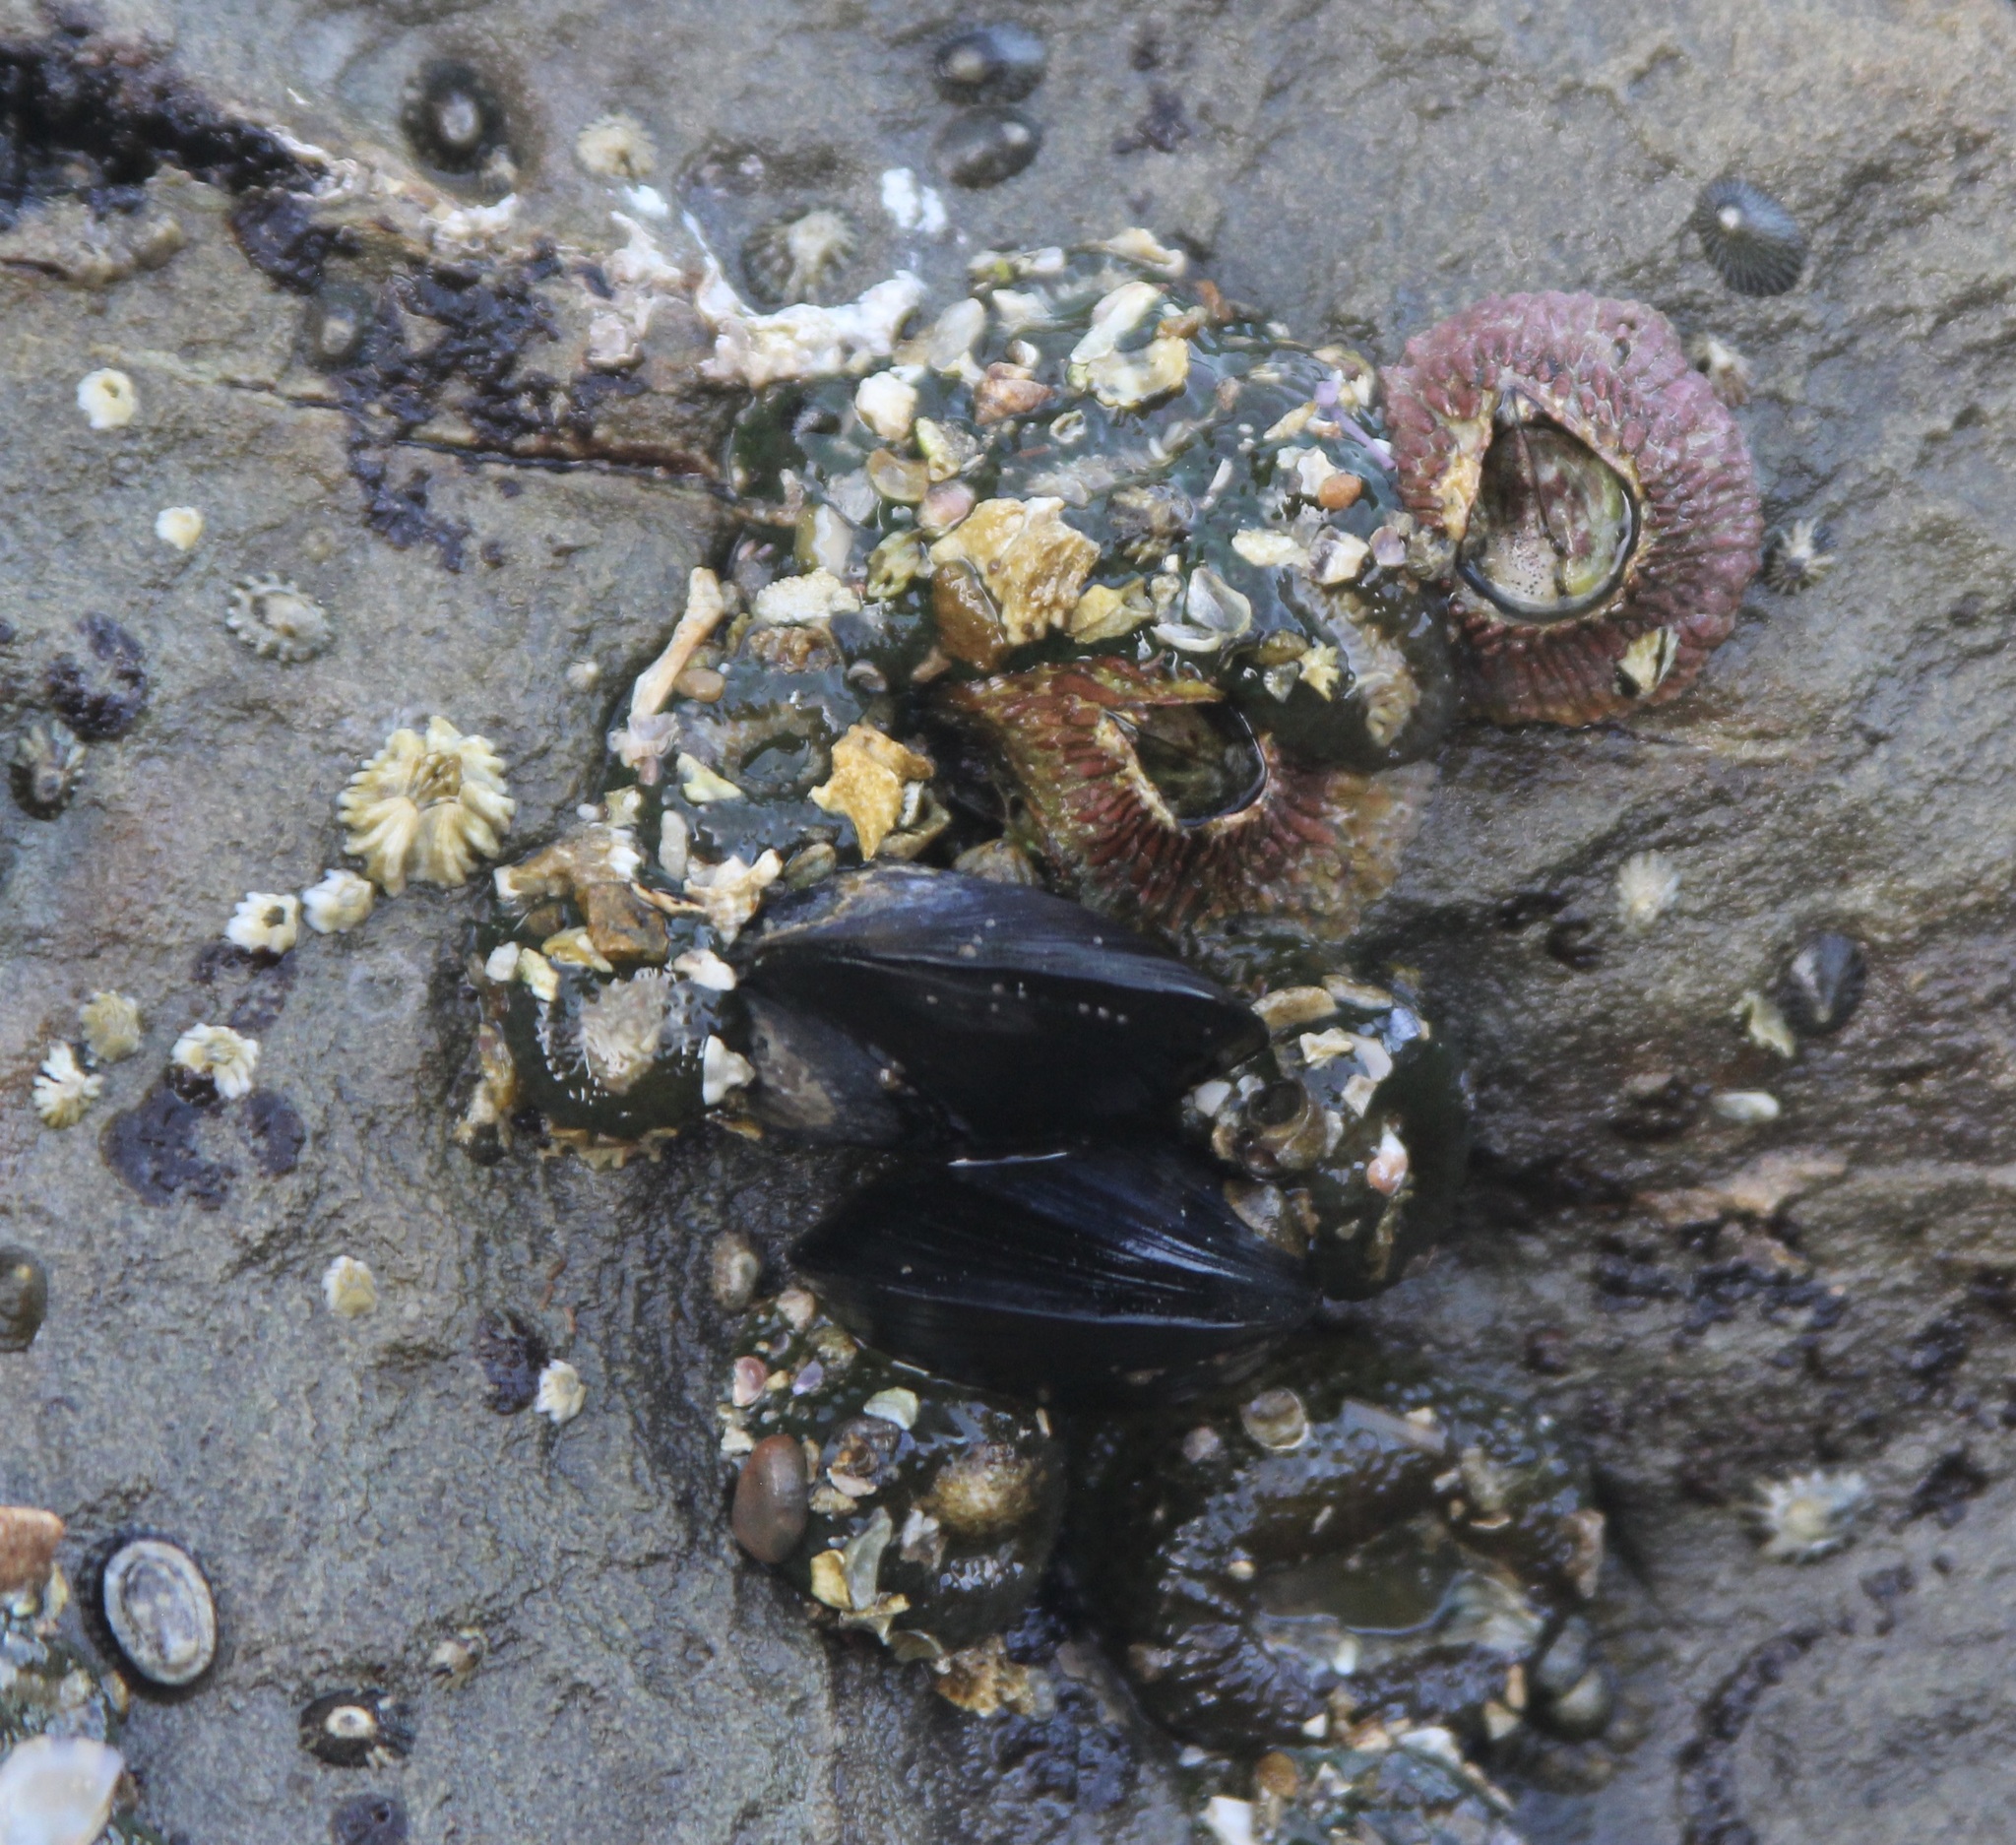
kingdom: Animalia
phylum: Mollusca
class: Bivalvia
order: Mytilida
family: Mytilidae
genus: Mytilus
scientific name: Mytilus californianus
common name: California mussel
